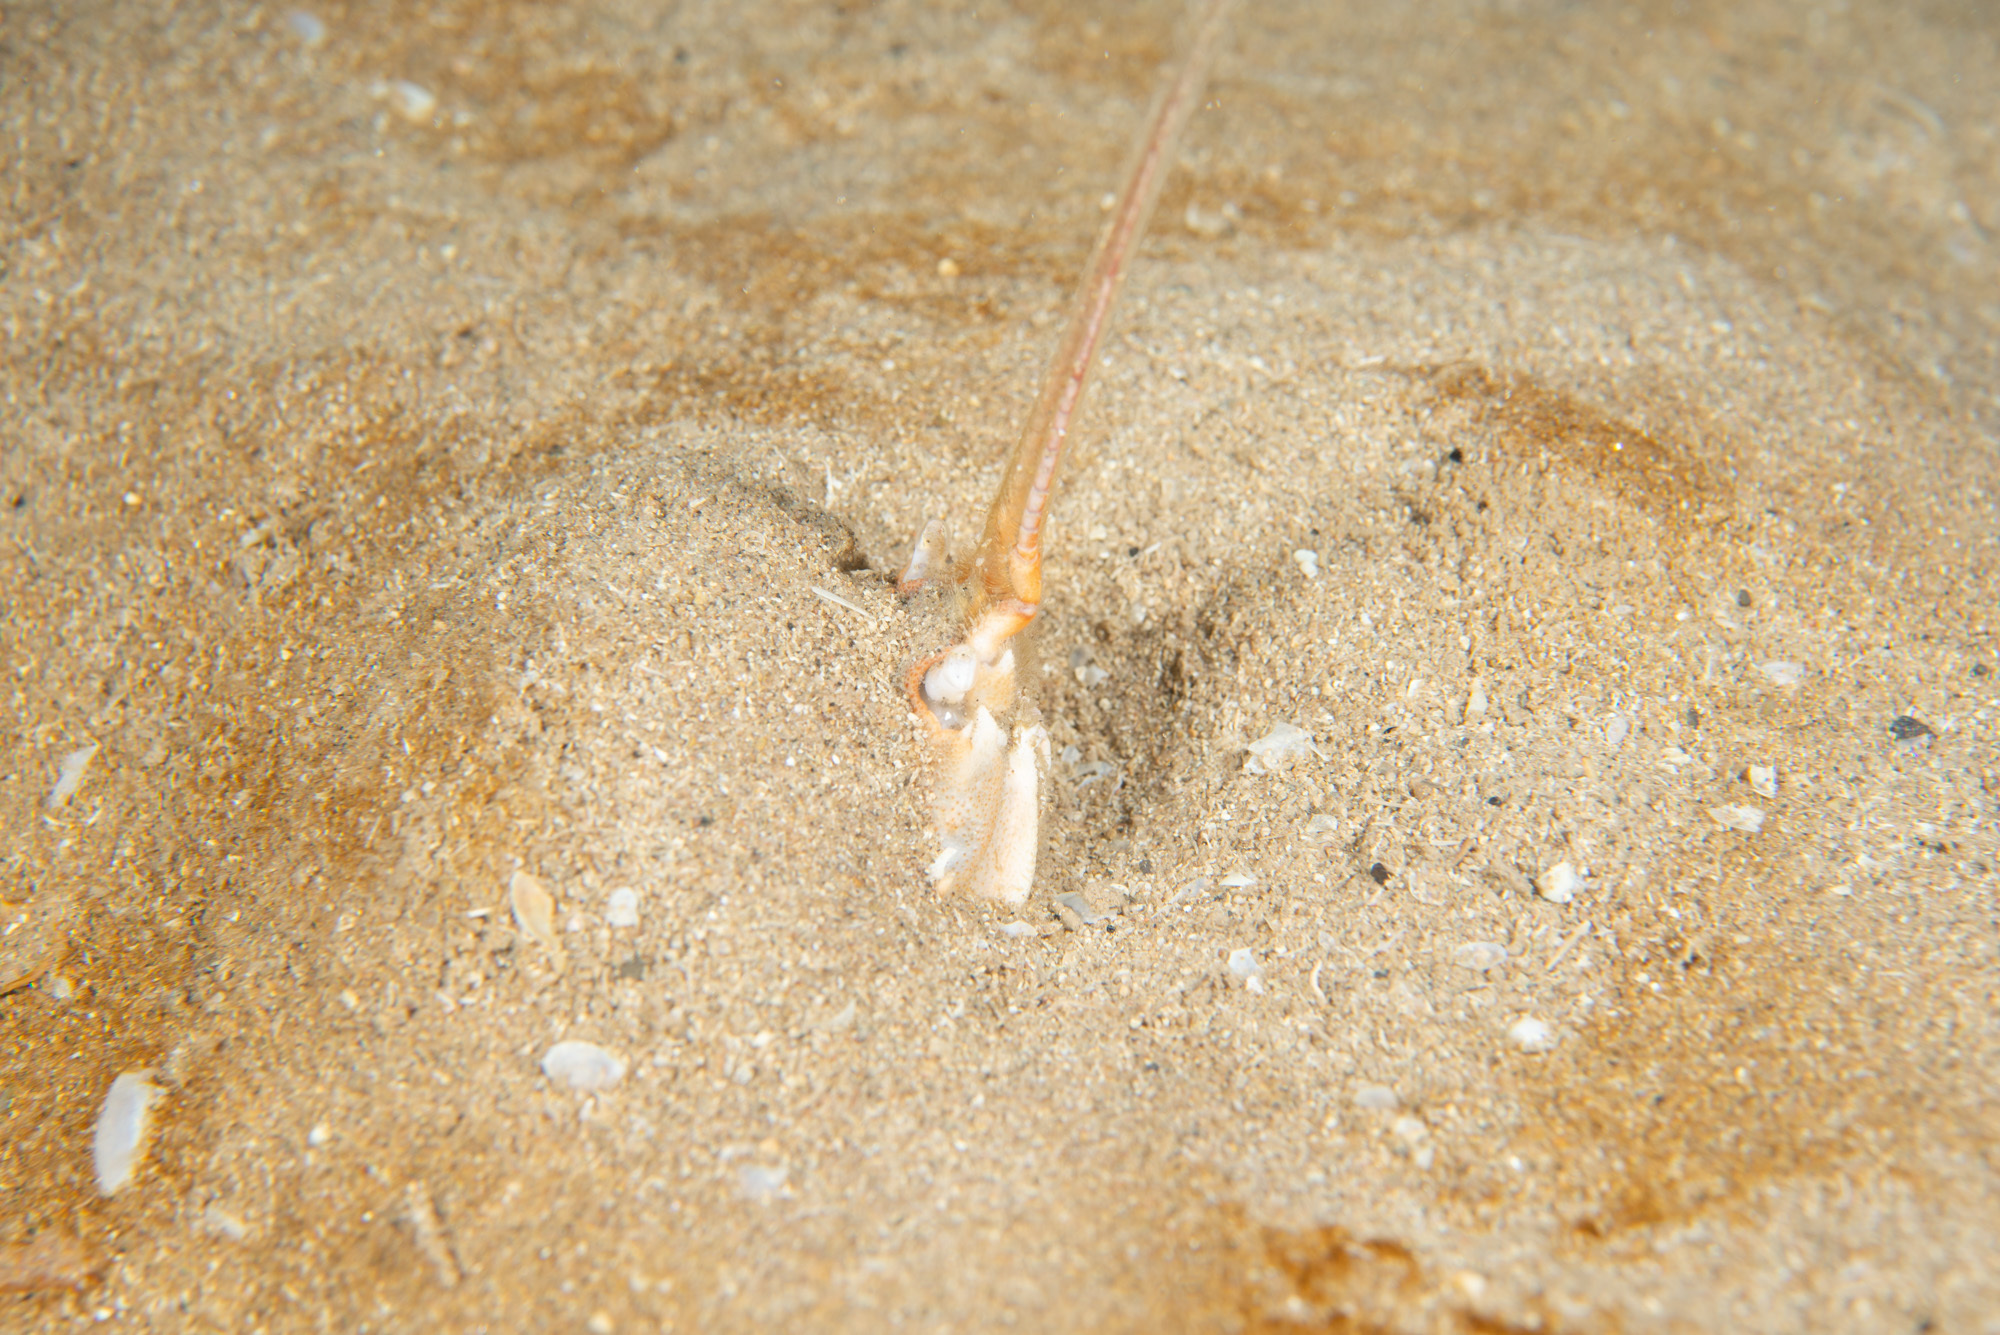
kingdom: Animalia
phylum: Arthropoda
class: Malacostraca
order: Decapoda
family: Corystidae
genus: Corystes
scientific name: Corystes cassivelaunus
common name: Masked crab
